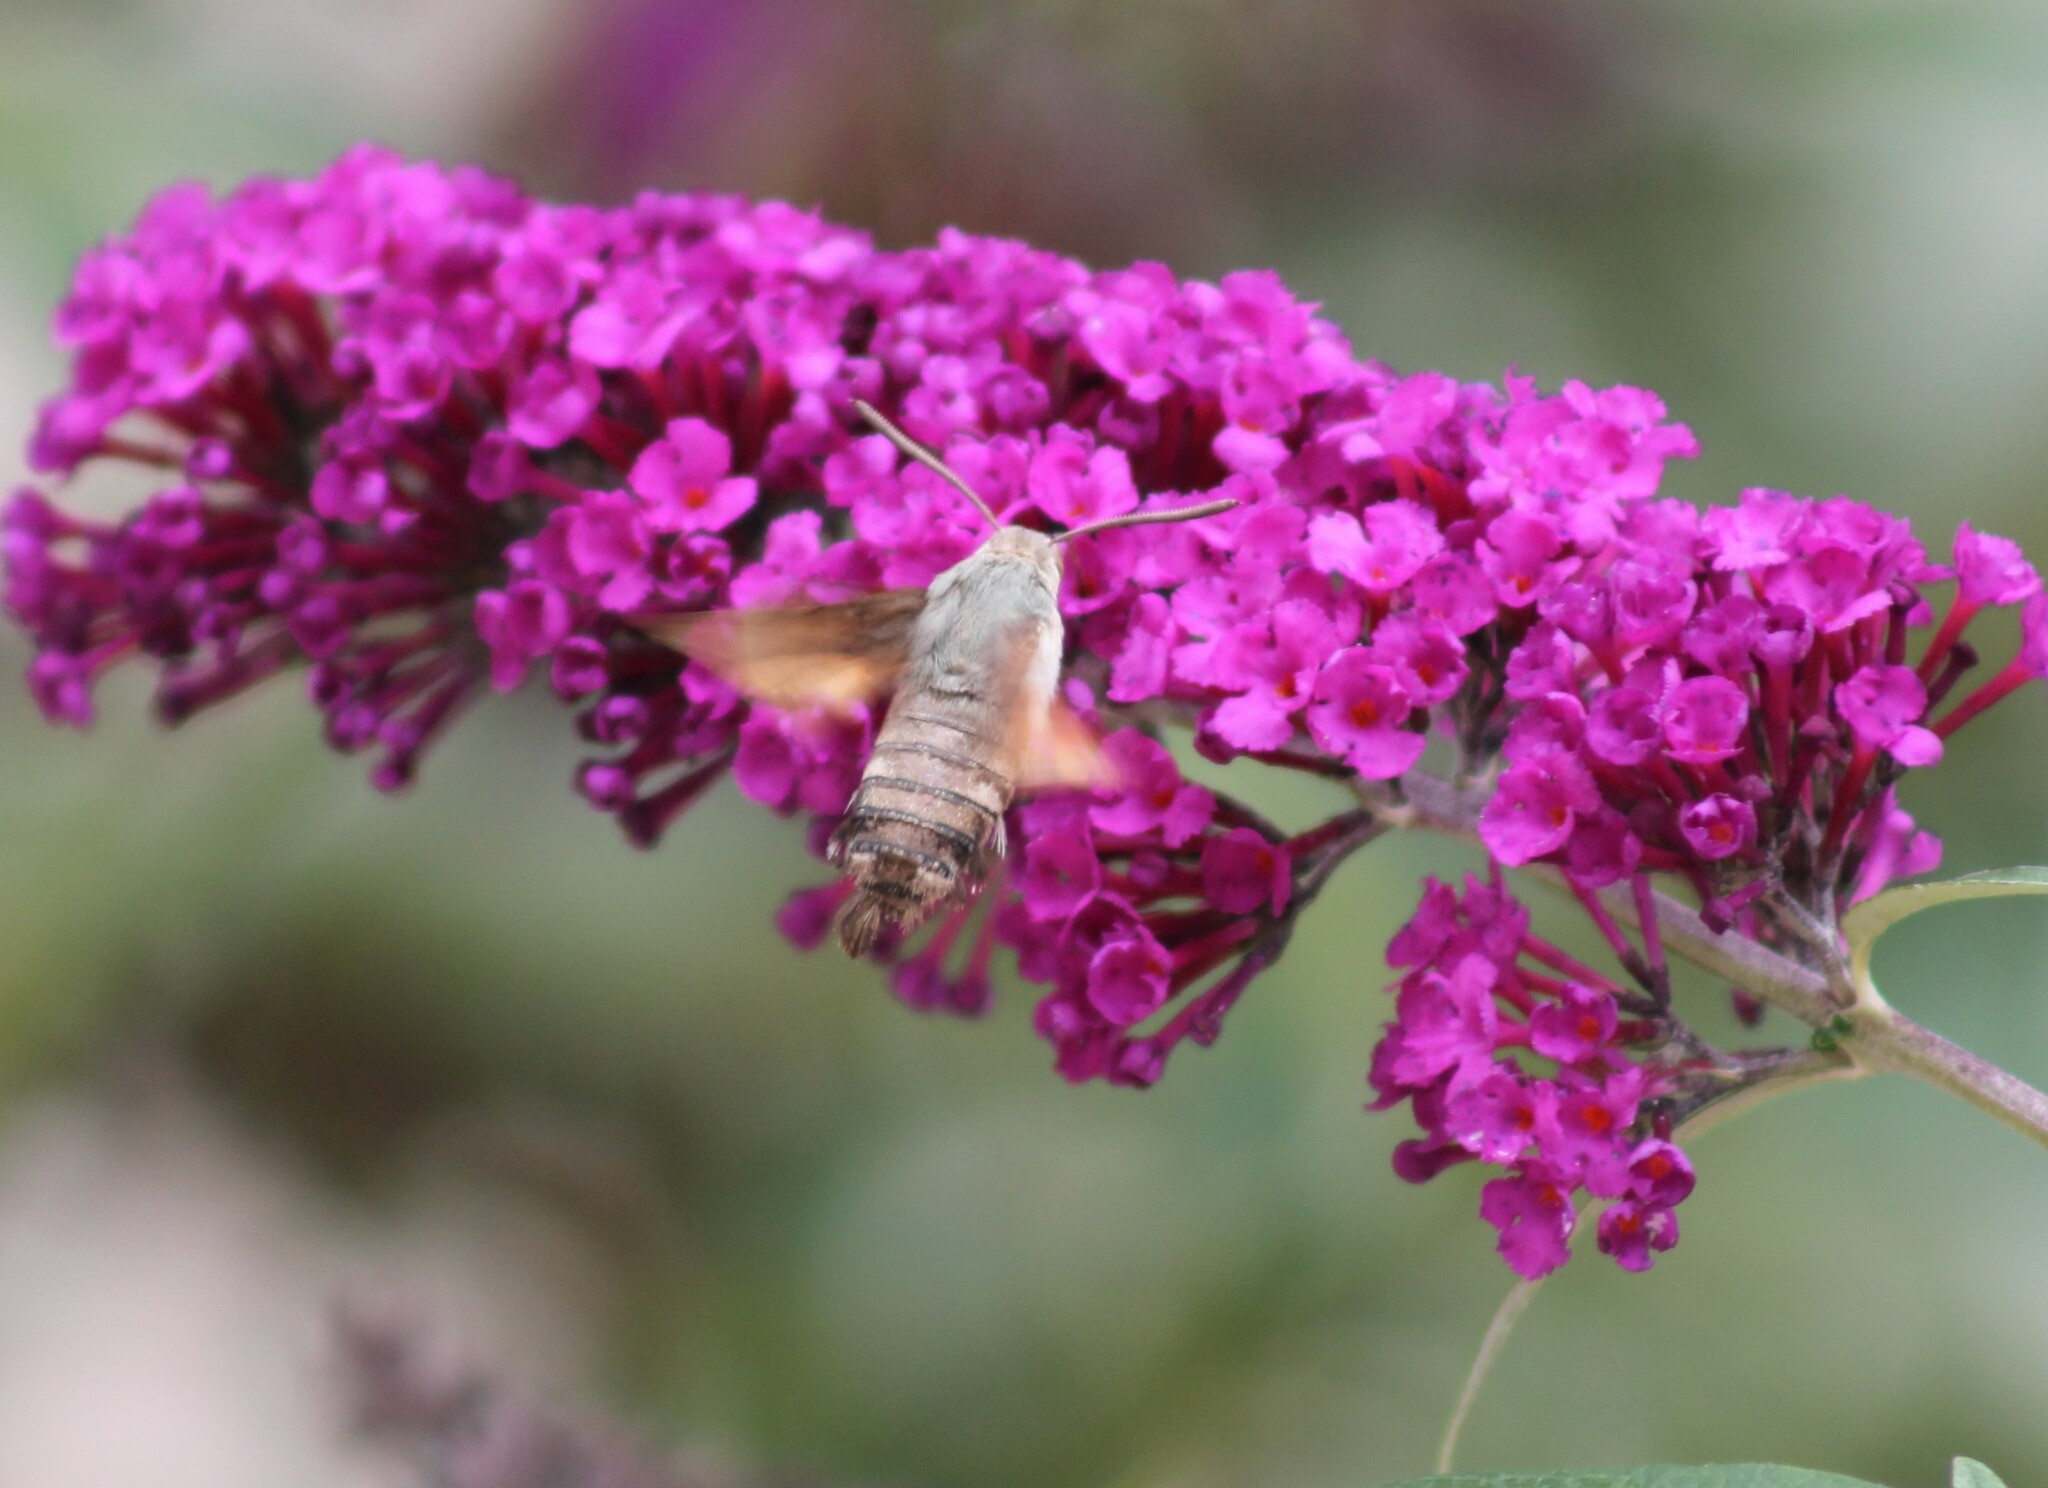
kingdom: Animalia
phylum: Arthropoda
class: Insecta
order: Lepidoptera
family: Sphingidae
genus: Macroglossum
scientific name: Macroglossum stellatarum
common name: Humming-bird hawk-moth
